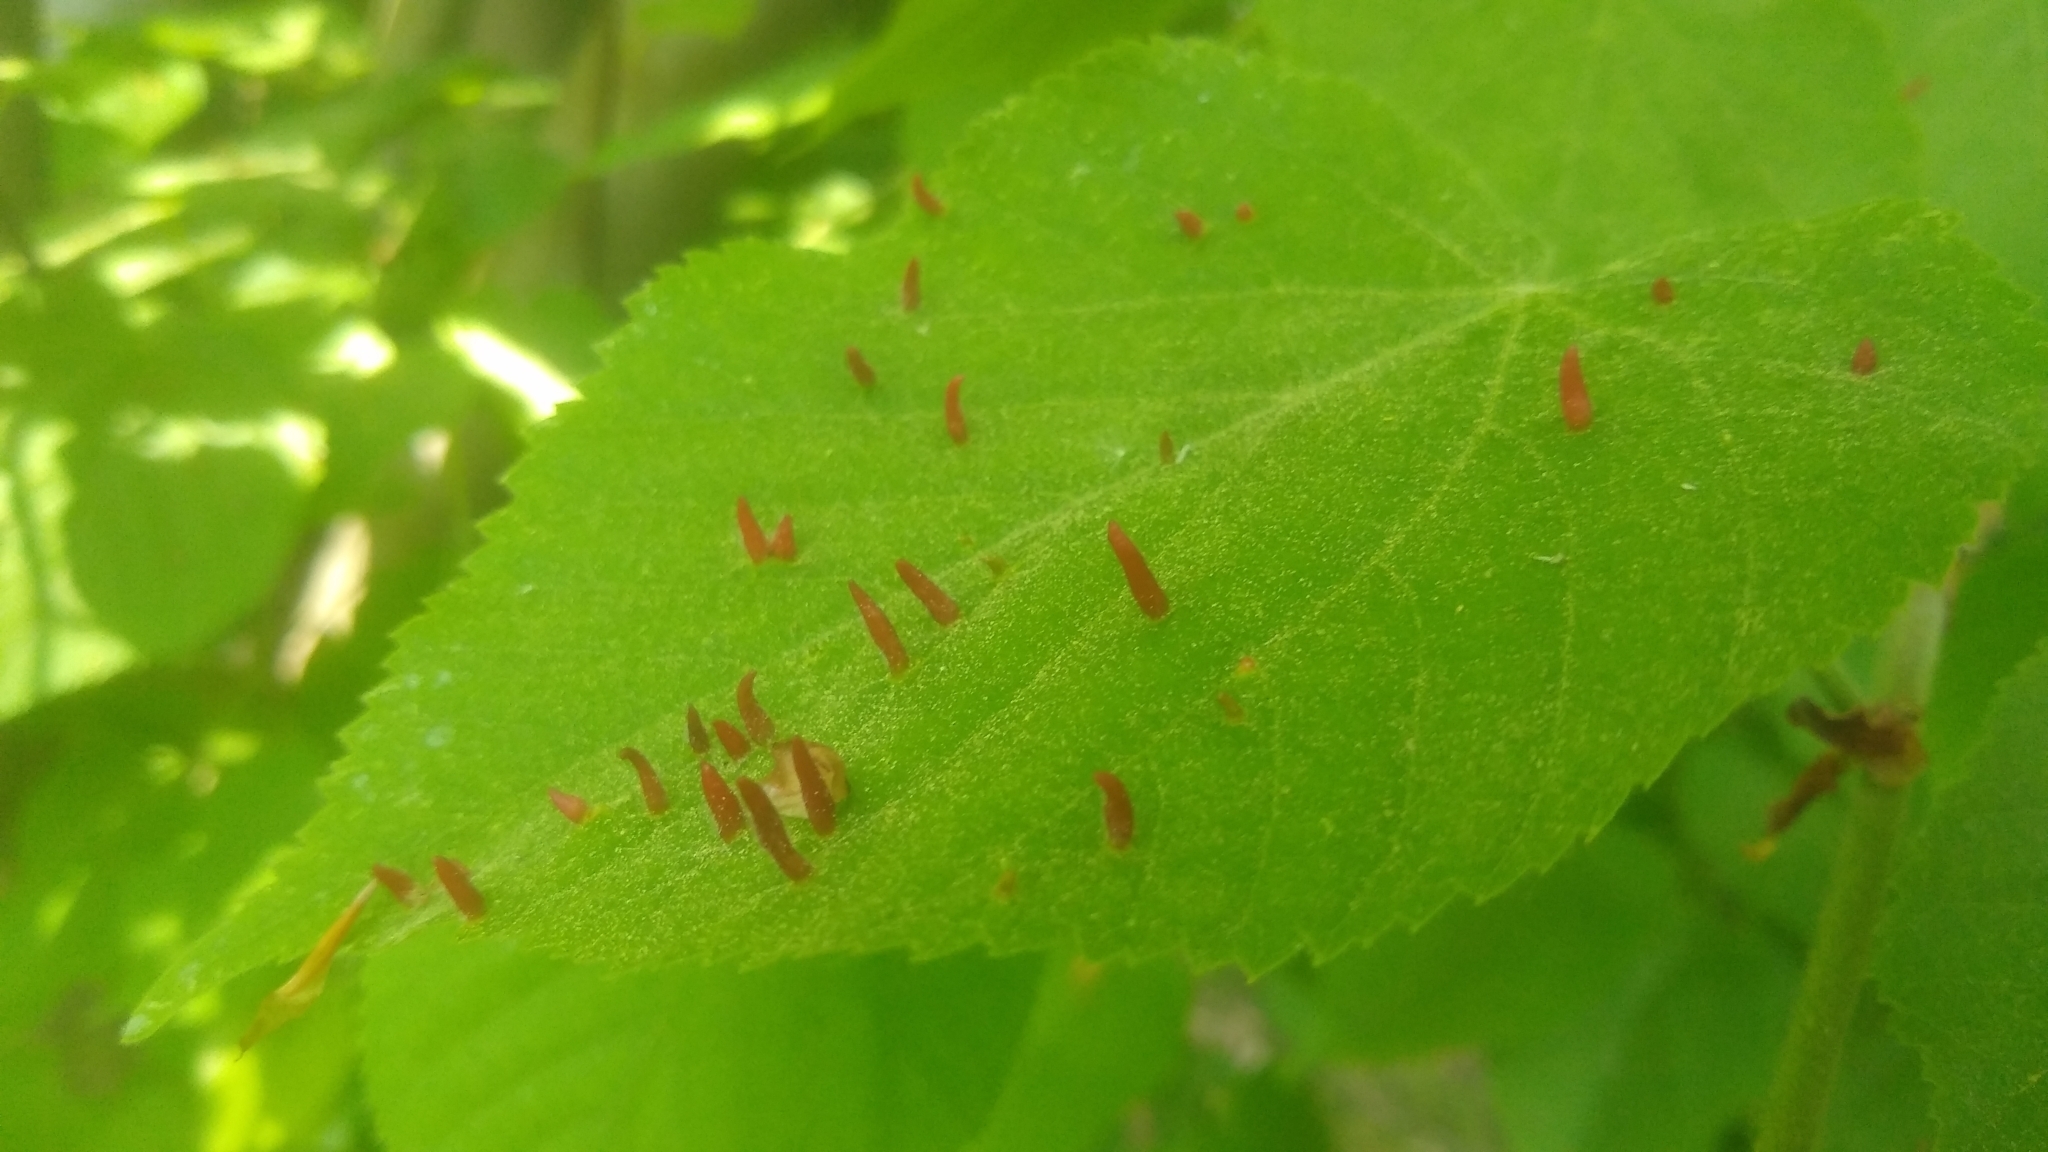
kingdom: Animalia
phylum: Arthropoda
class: Arachnida
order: Trombidiformes
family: Eriophyidae
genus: Eriophyes
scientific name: Eriophyes tiliae
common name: Red nail gall mite
